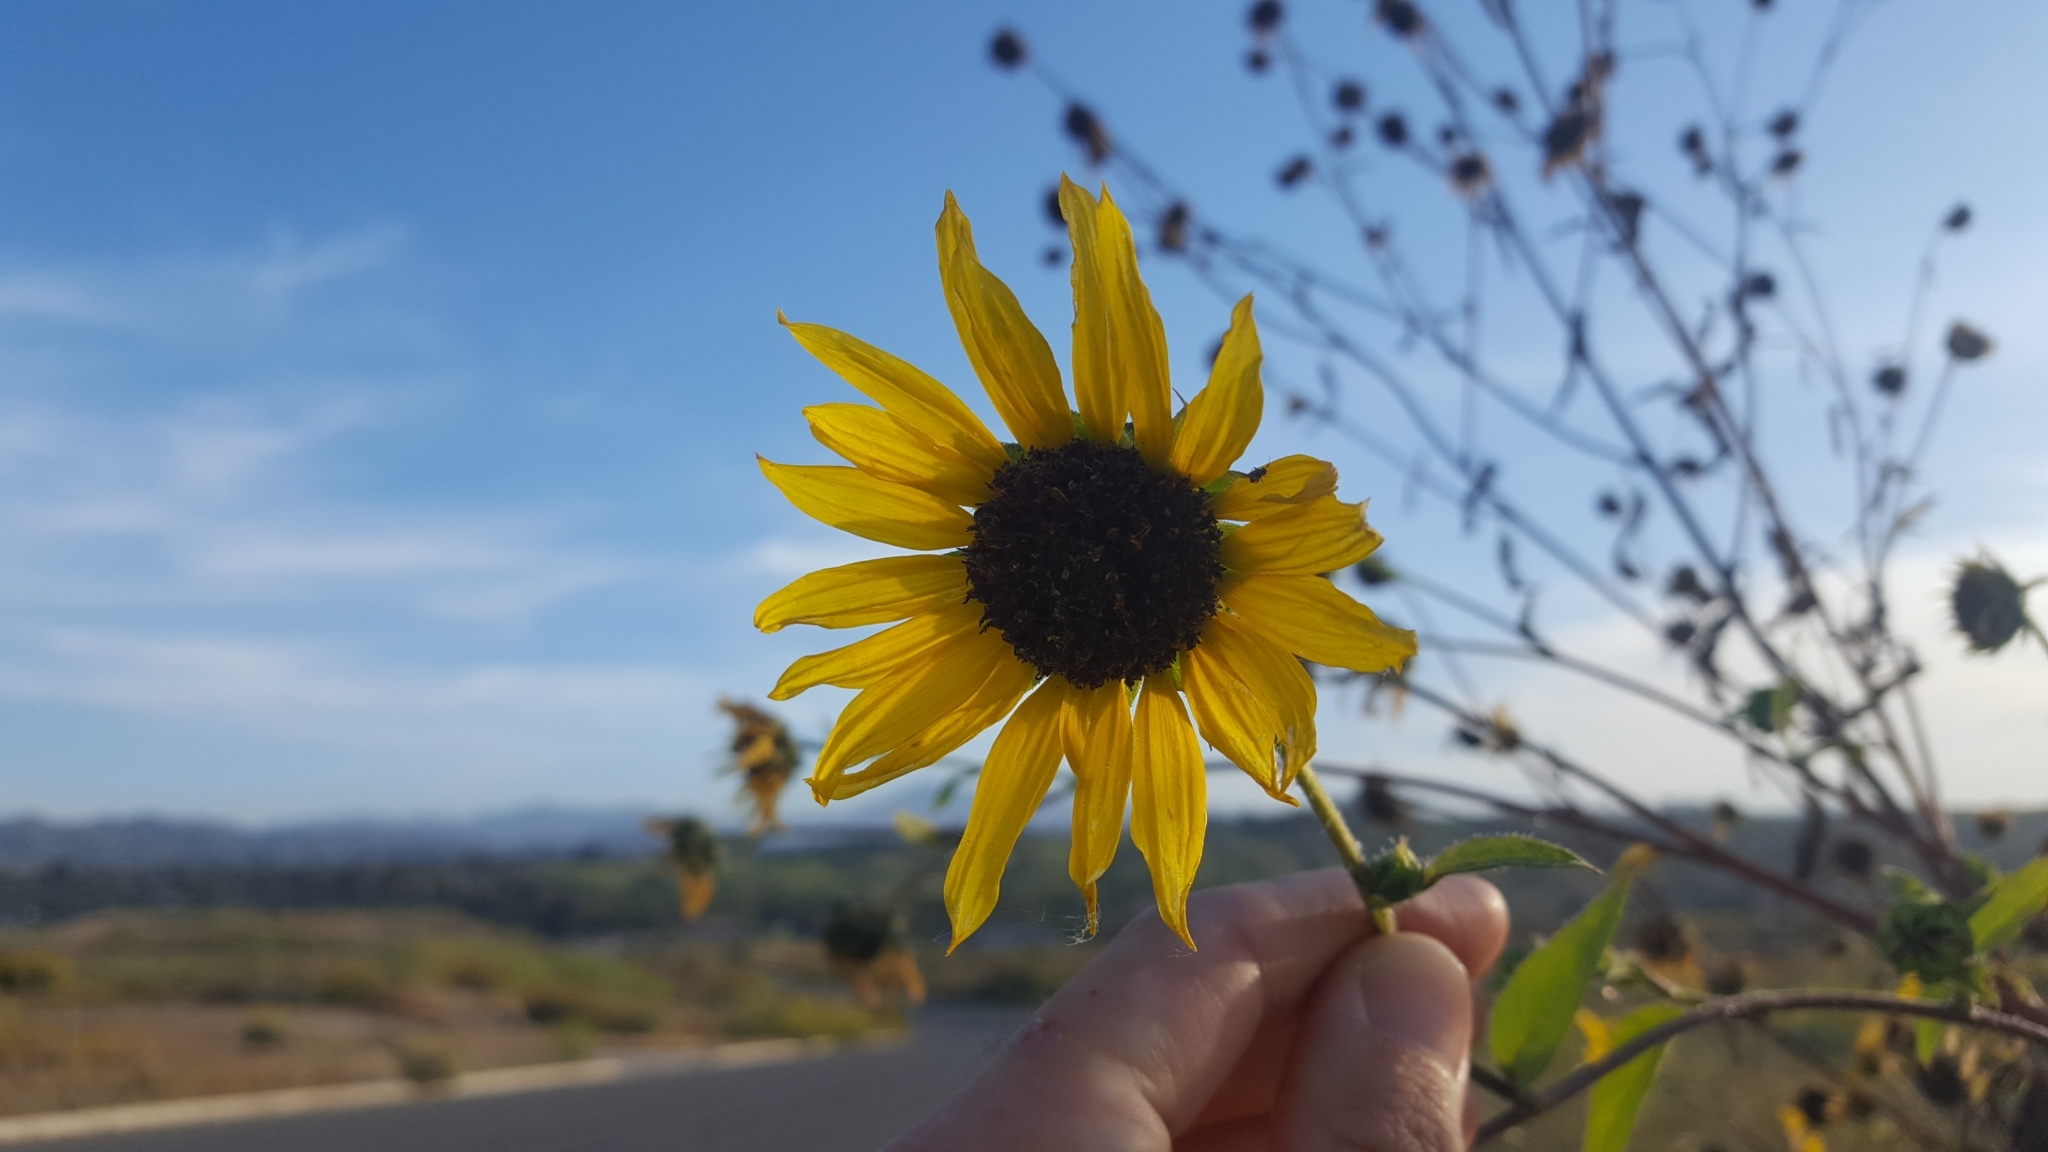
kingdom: Plantae
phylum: Tracheophyta
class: Magnoliopsida
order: Asterales
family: Asteraceae
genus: Helianthus
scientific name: Helianthus annuus
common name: Sunflower
